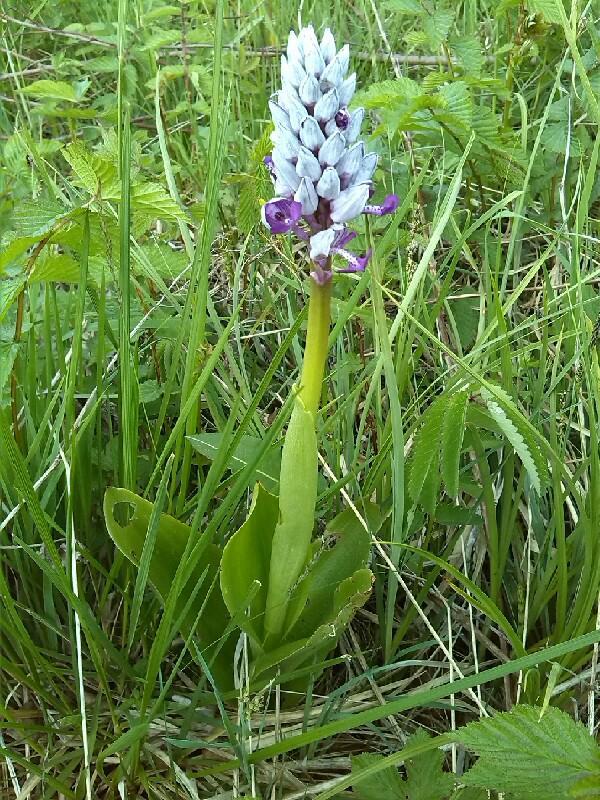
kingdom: Plantae
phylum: Tracheophyta
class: Liliopsida
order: Asparagales
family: Orchidaceae
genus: Orchis
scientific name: Orchis militaris
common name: Military orchid
